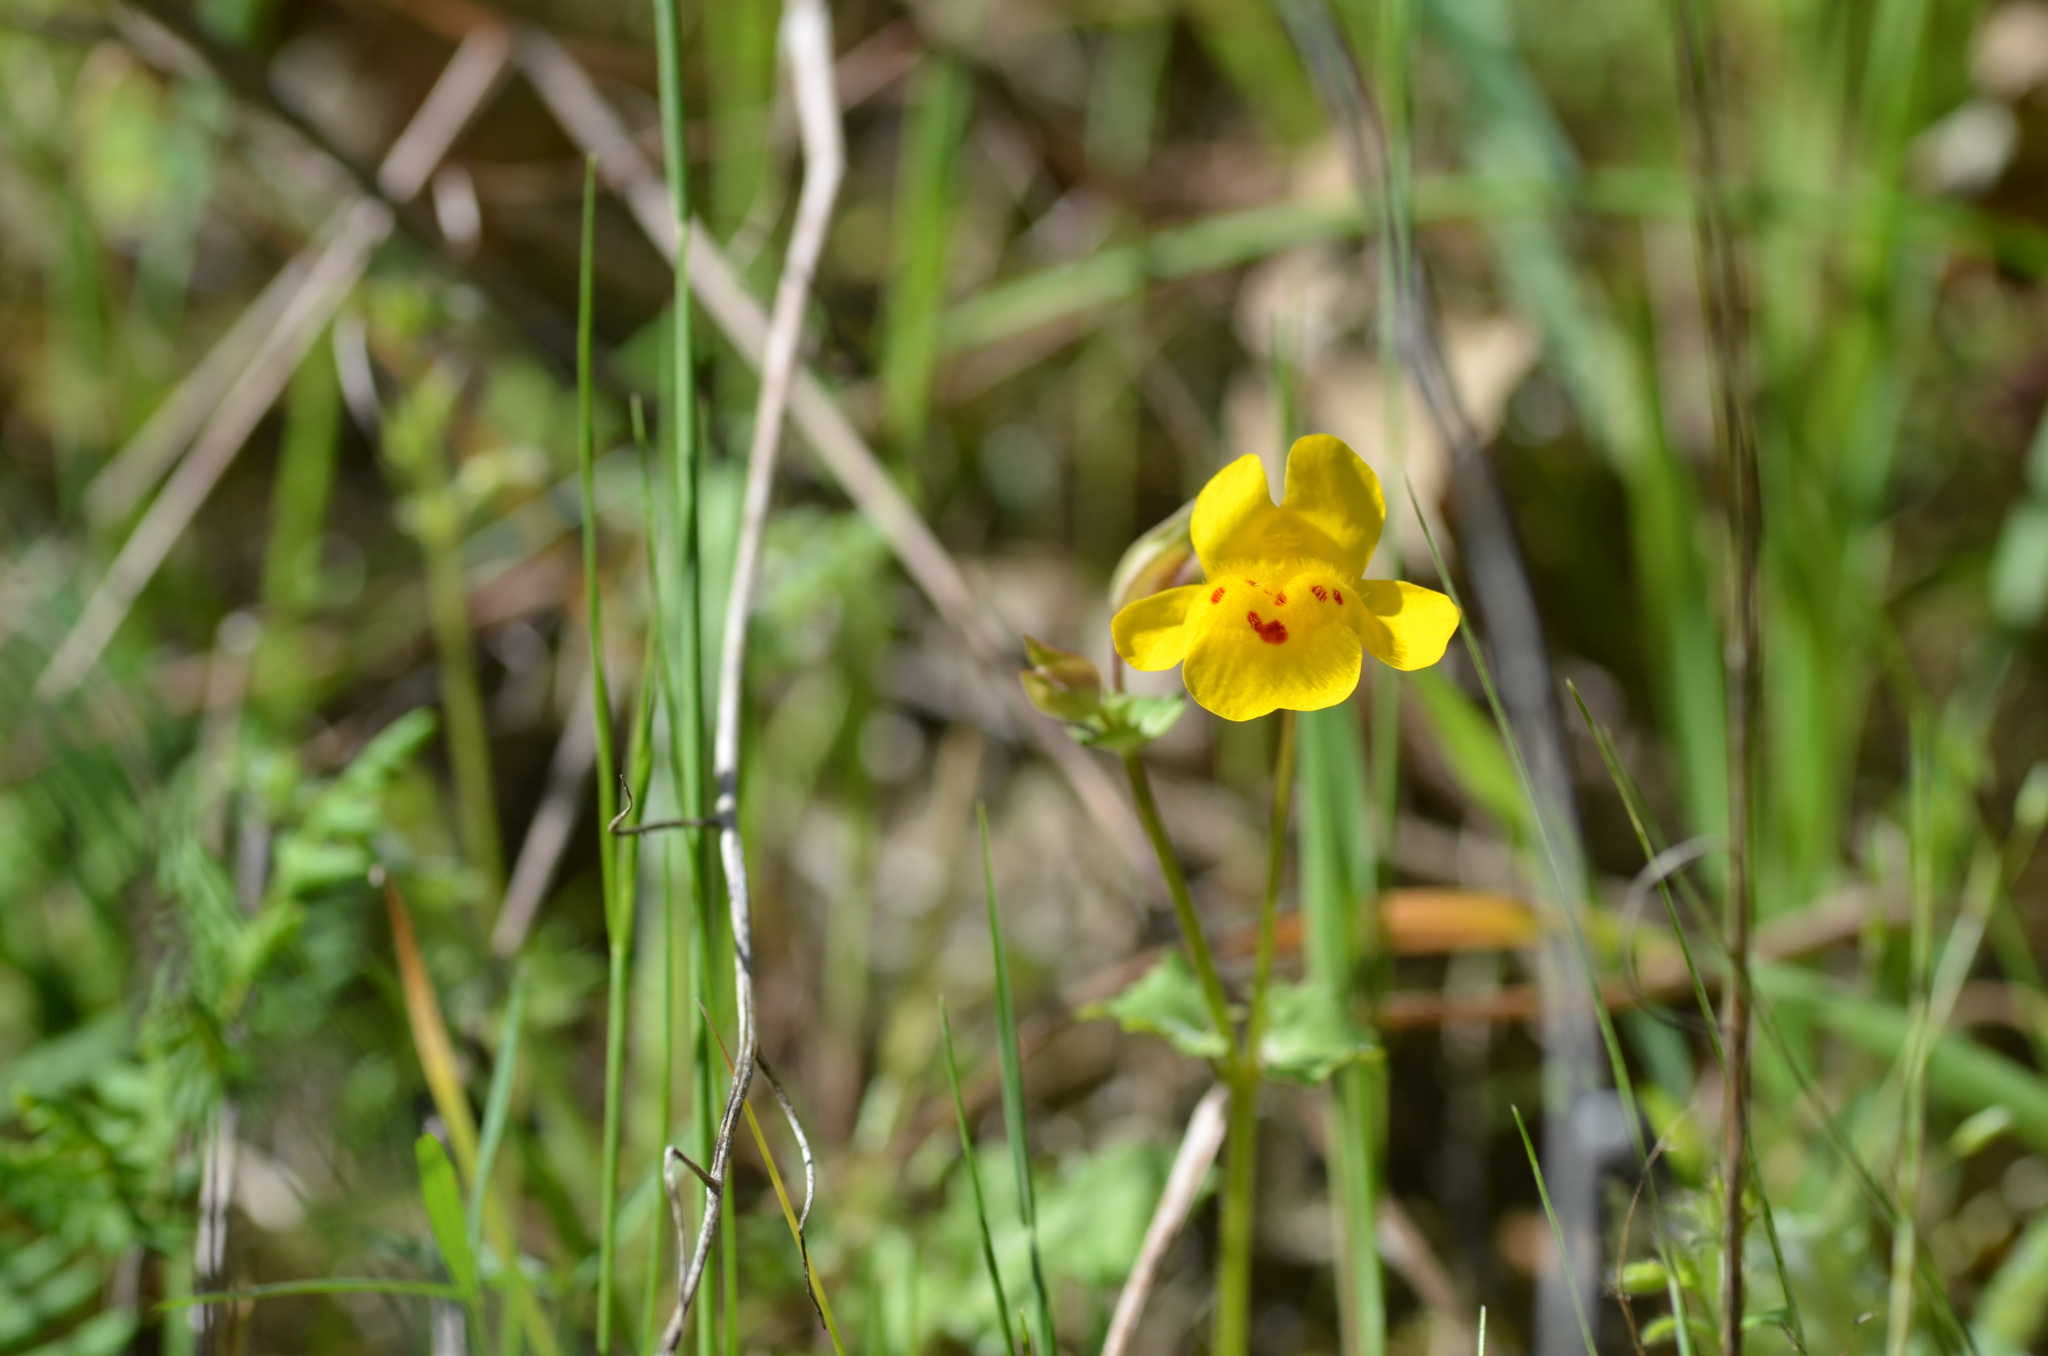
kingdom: Plantae
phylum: Tracheophyta
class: Magnoliopsida
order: Lamiales
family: Phrymaceae
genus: Erythranthe
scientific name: Erythranthe guttata
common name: Monkeyflower
